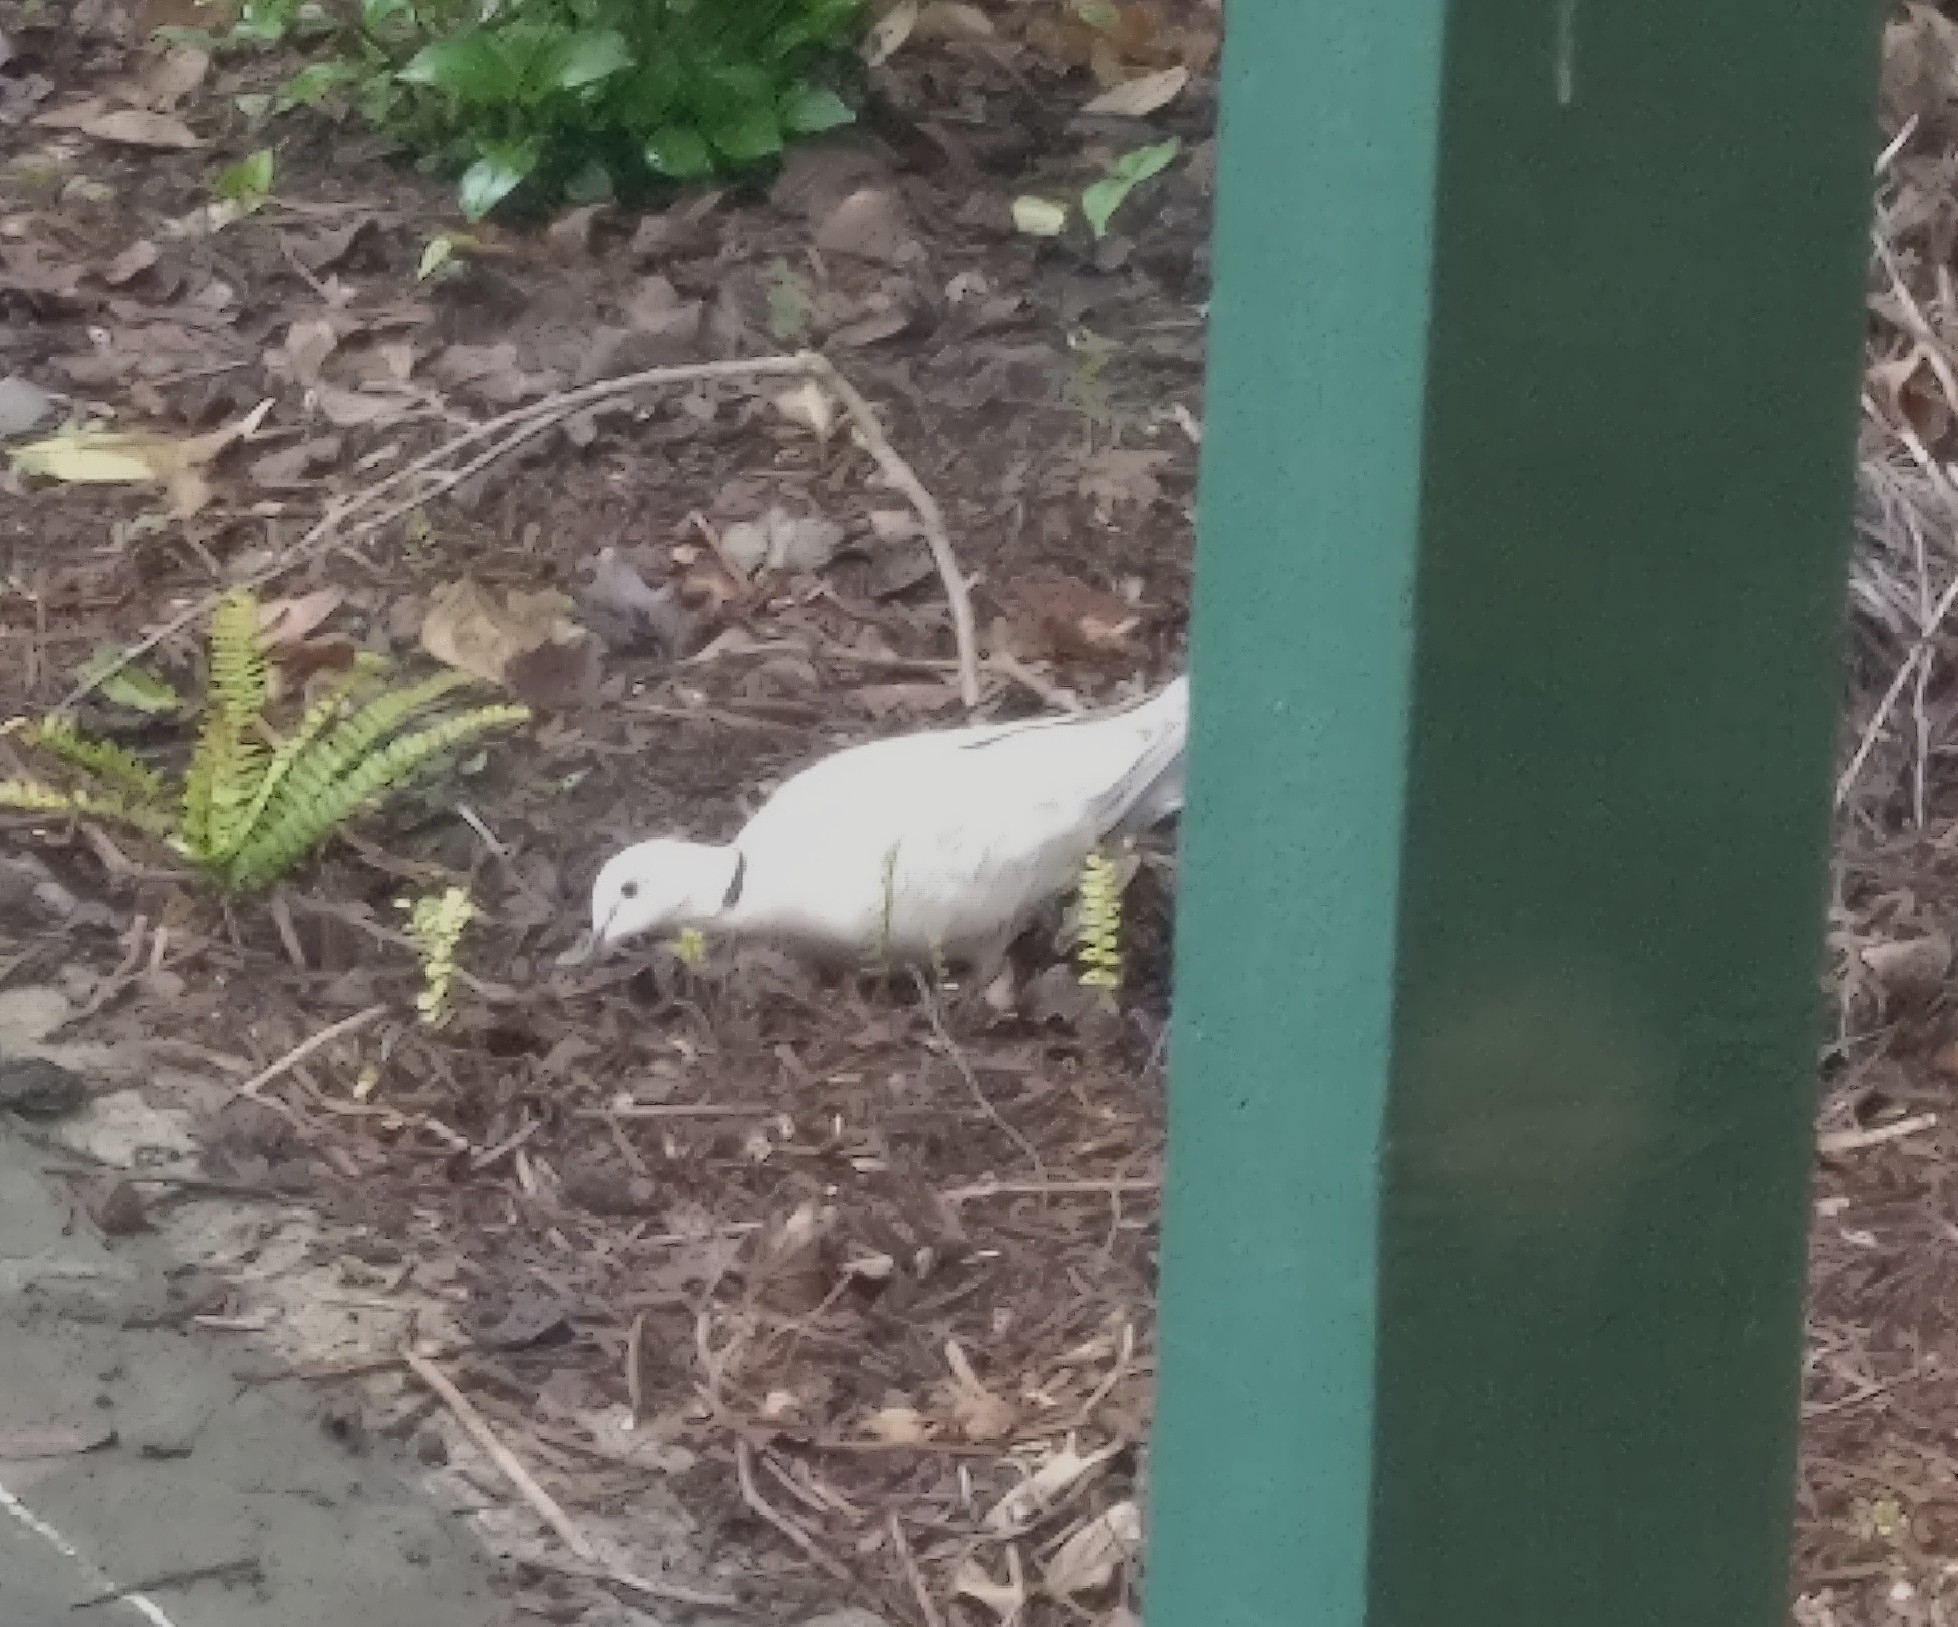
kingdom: Animalia
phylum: Chordata
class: Aves
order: Columbiformes
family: Columbidae
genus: Streptopelia
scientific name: Streptopelia roseogrisea
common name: African collared dove
